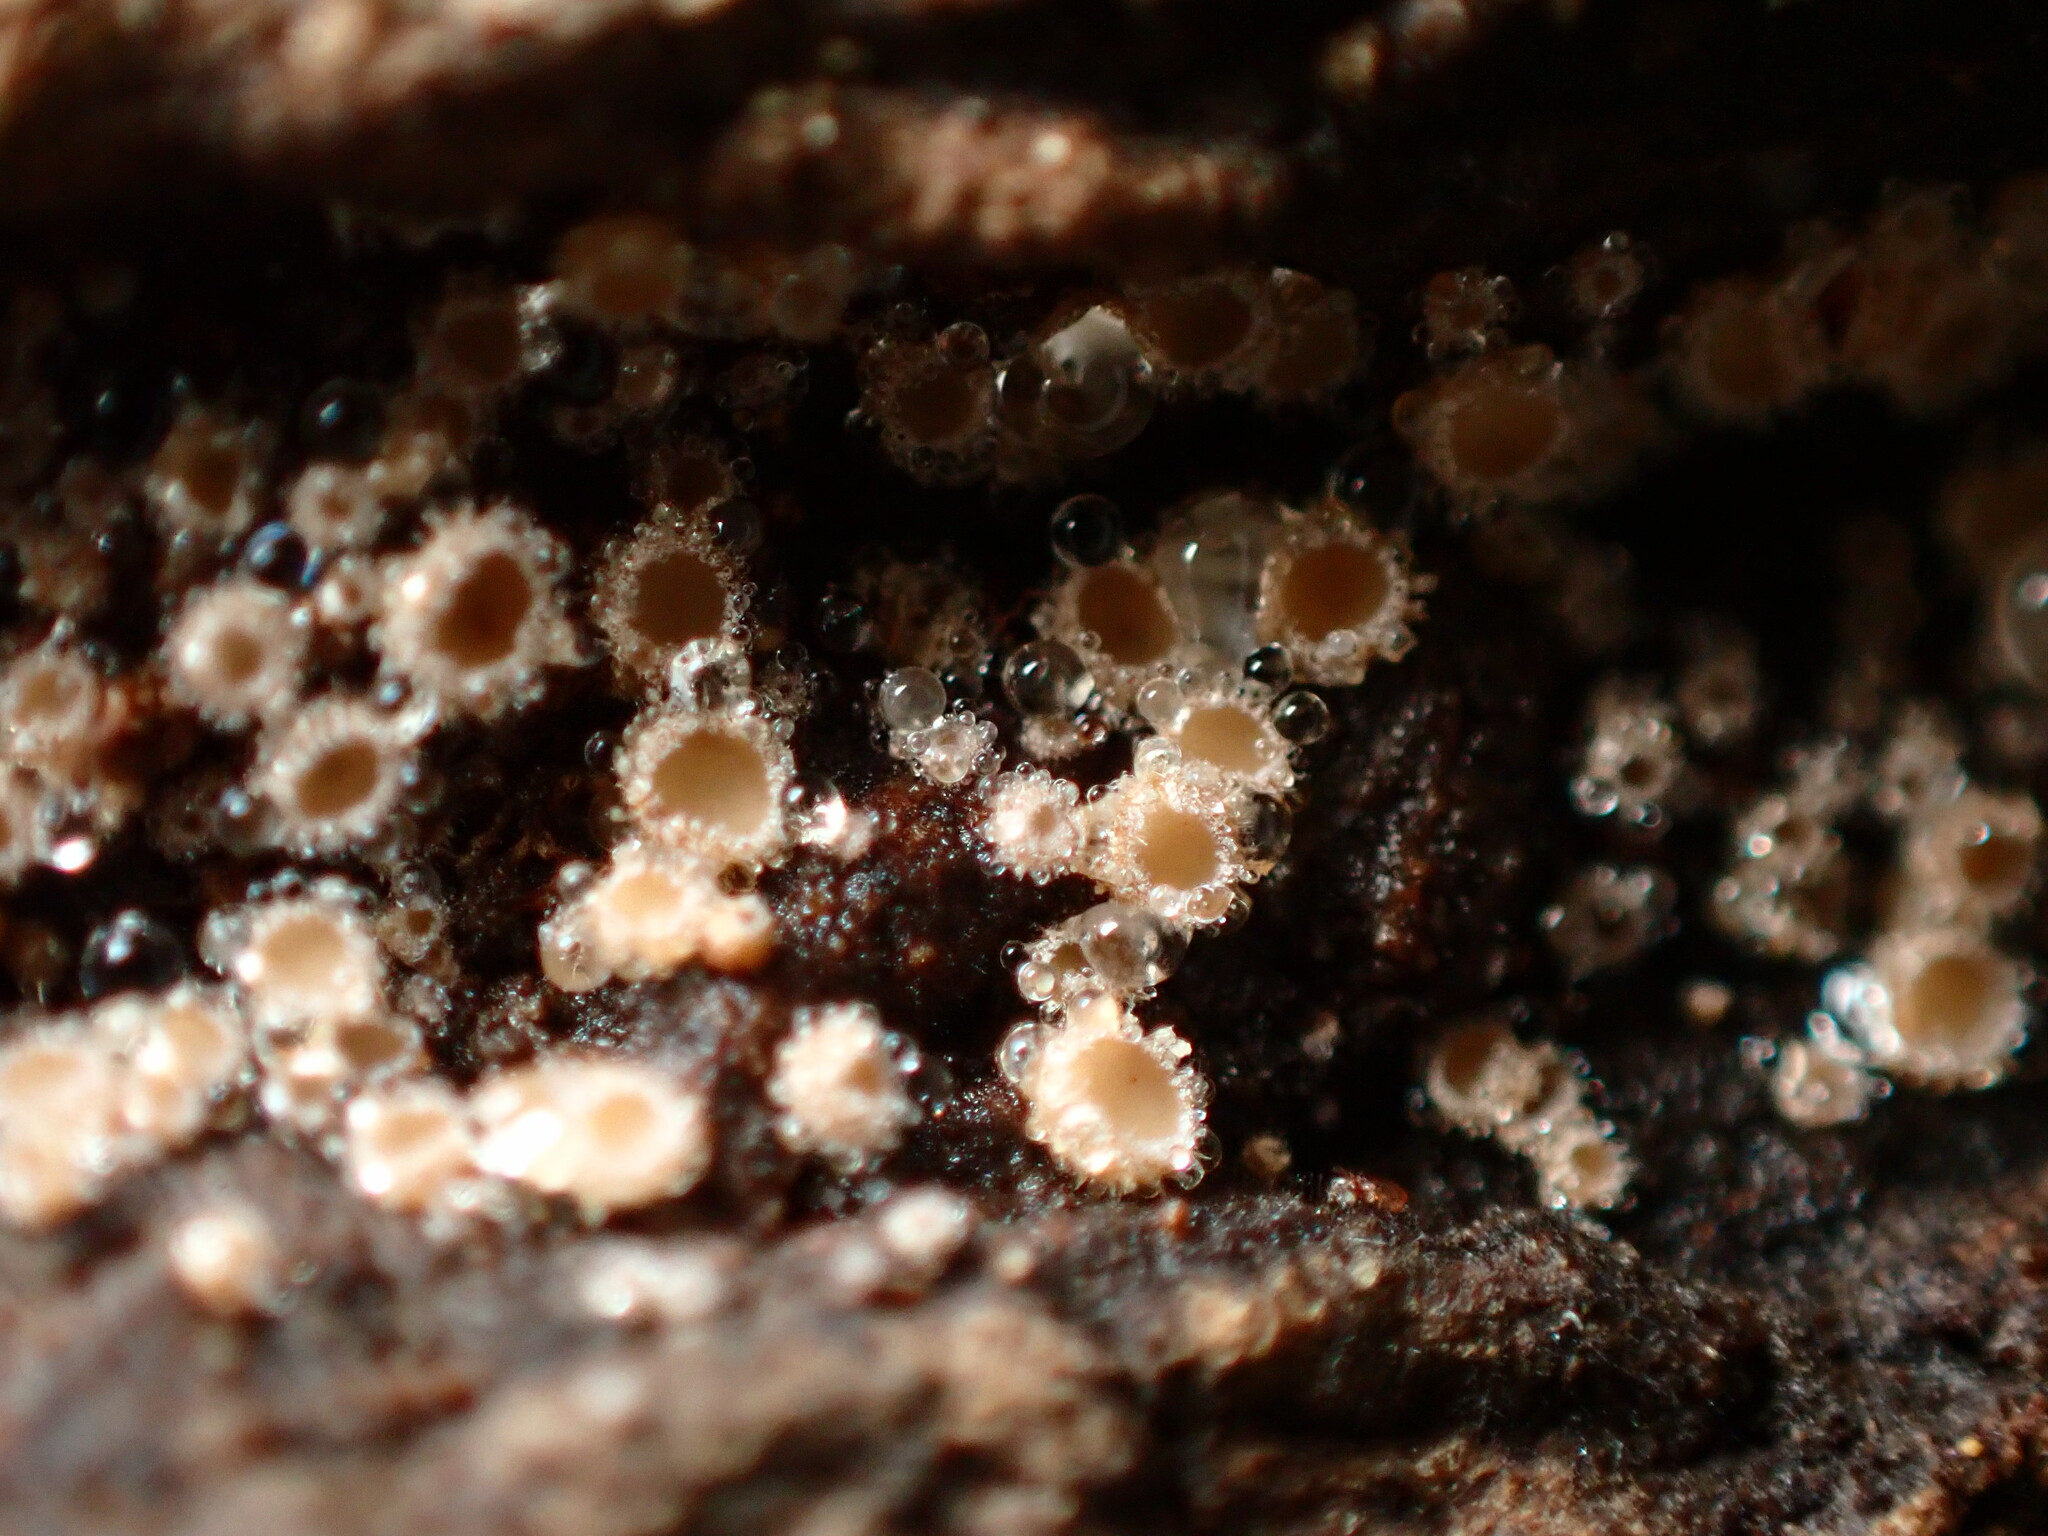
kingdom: Fungi
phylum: Ascomycota
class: Leotiomycetes
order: Helotiales
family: Lachnaceae
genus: Lachnum
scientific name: Lachnum virgineum
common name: Snowy disco
